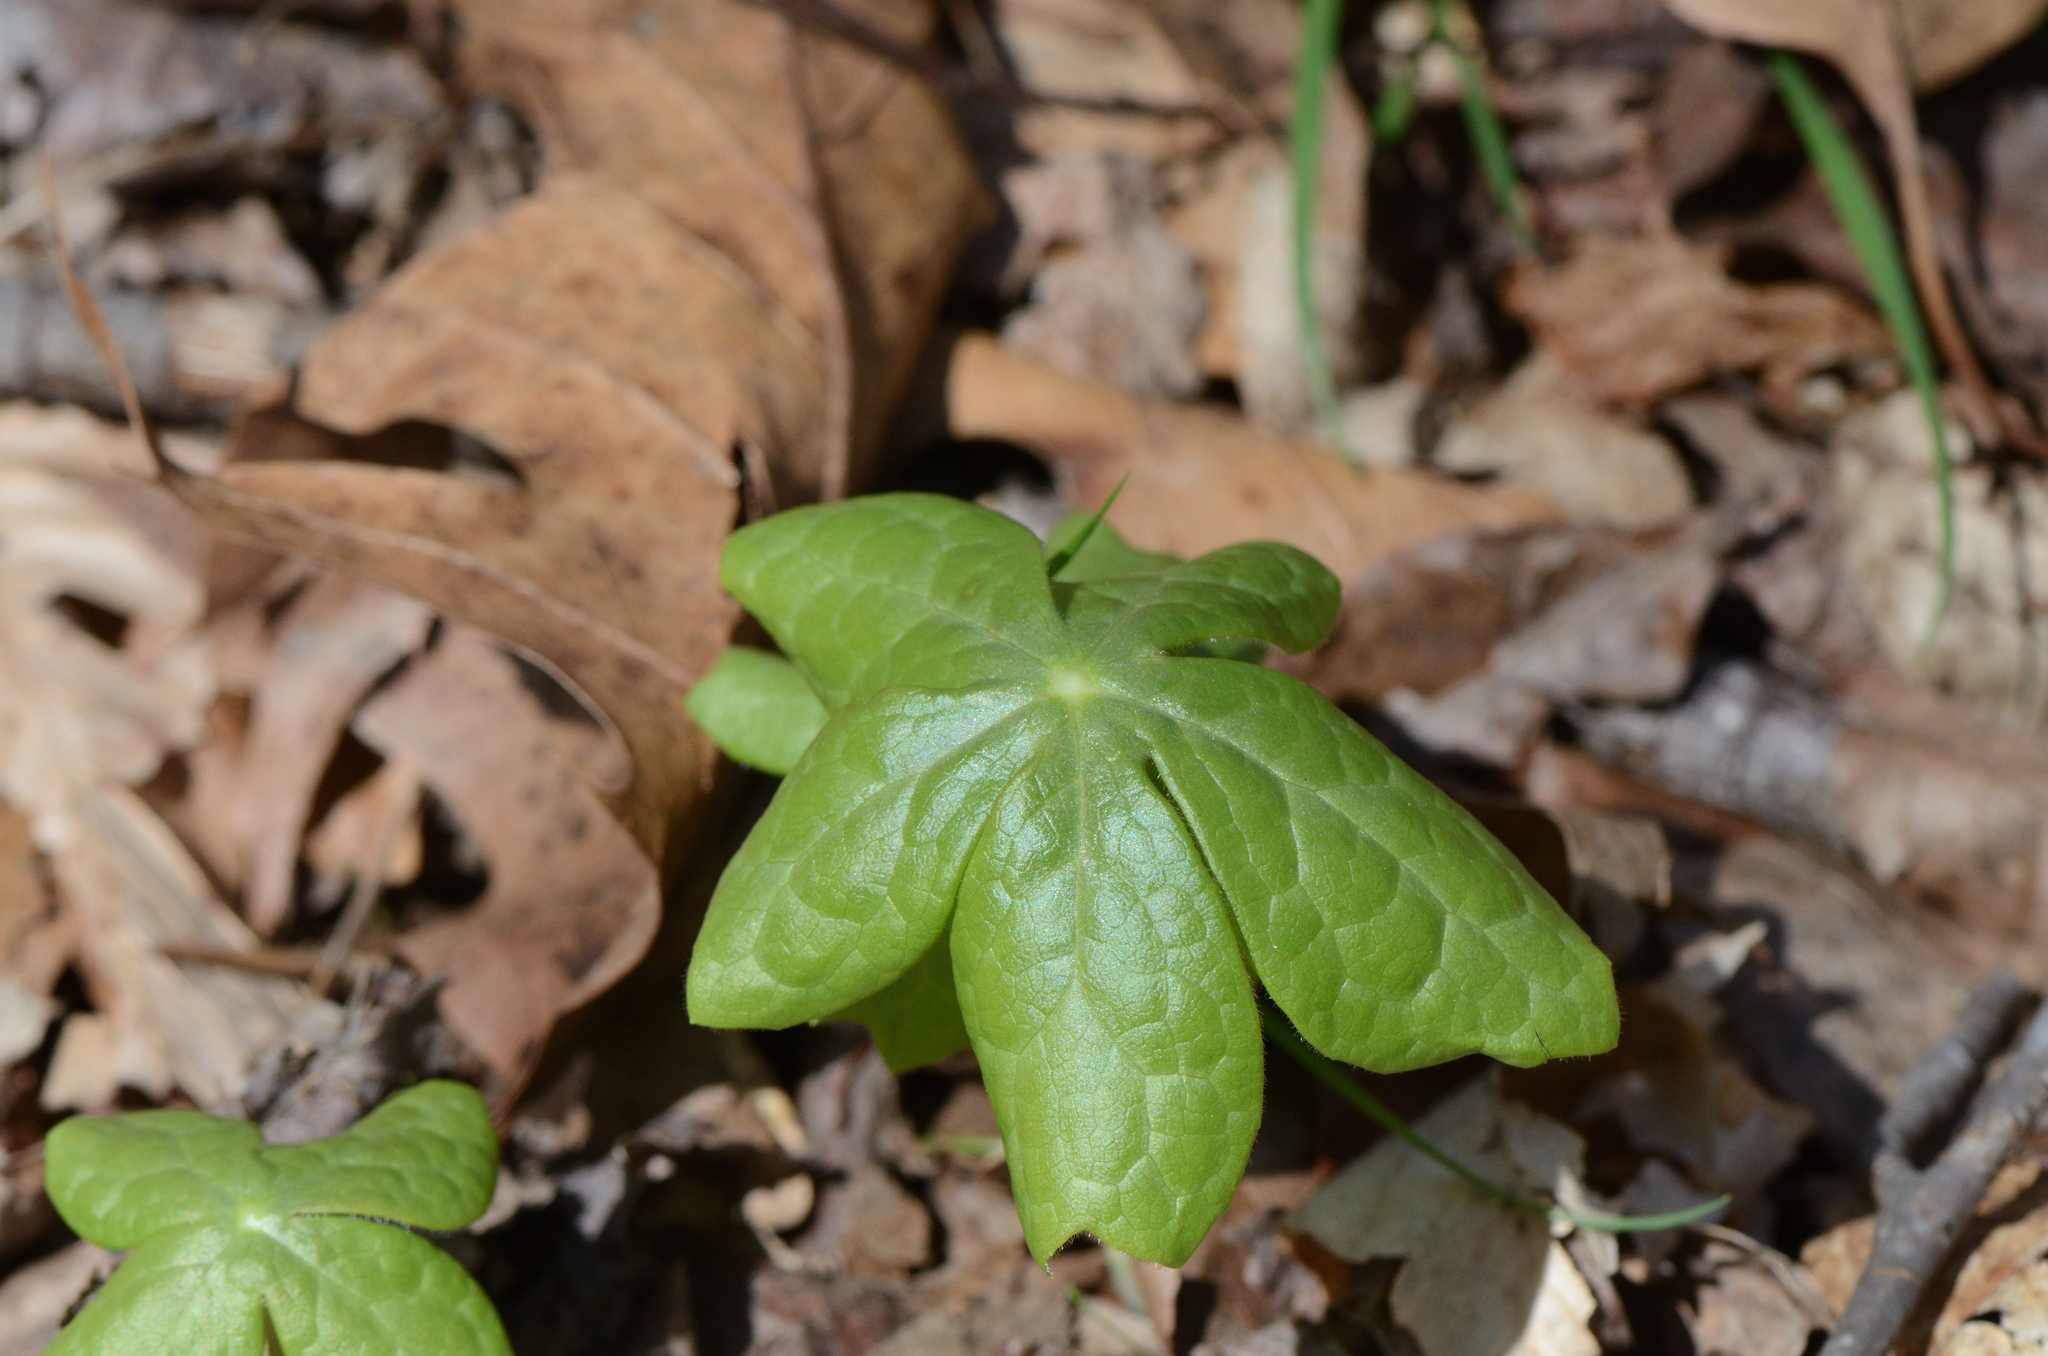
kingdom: Plantae
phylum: Tracheophyta
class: Magnoliopsida
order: Ranunculales
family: Berberidaceae
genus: Podophyllum
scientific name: Podophyllum peltatum
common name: Wild mandrake
